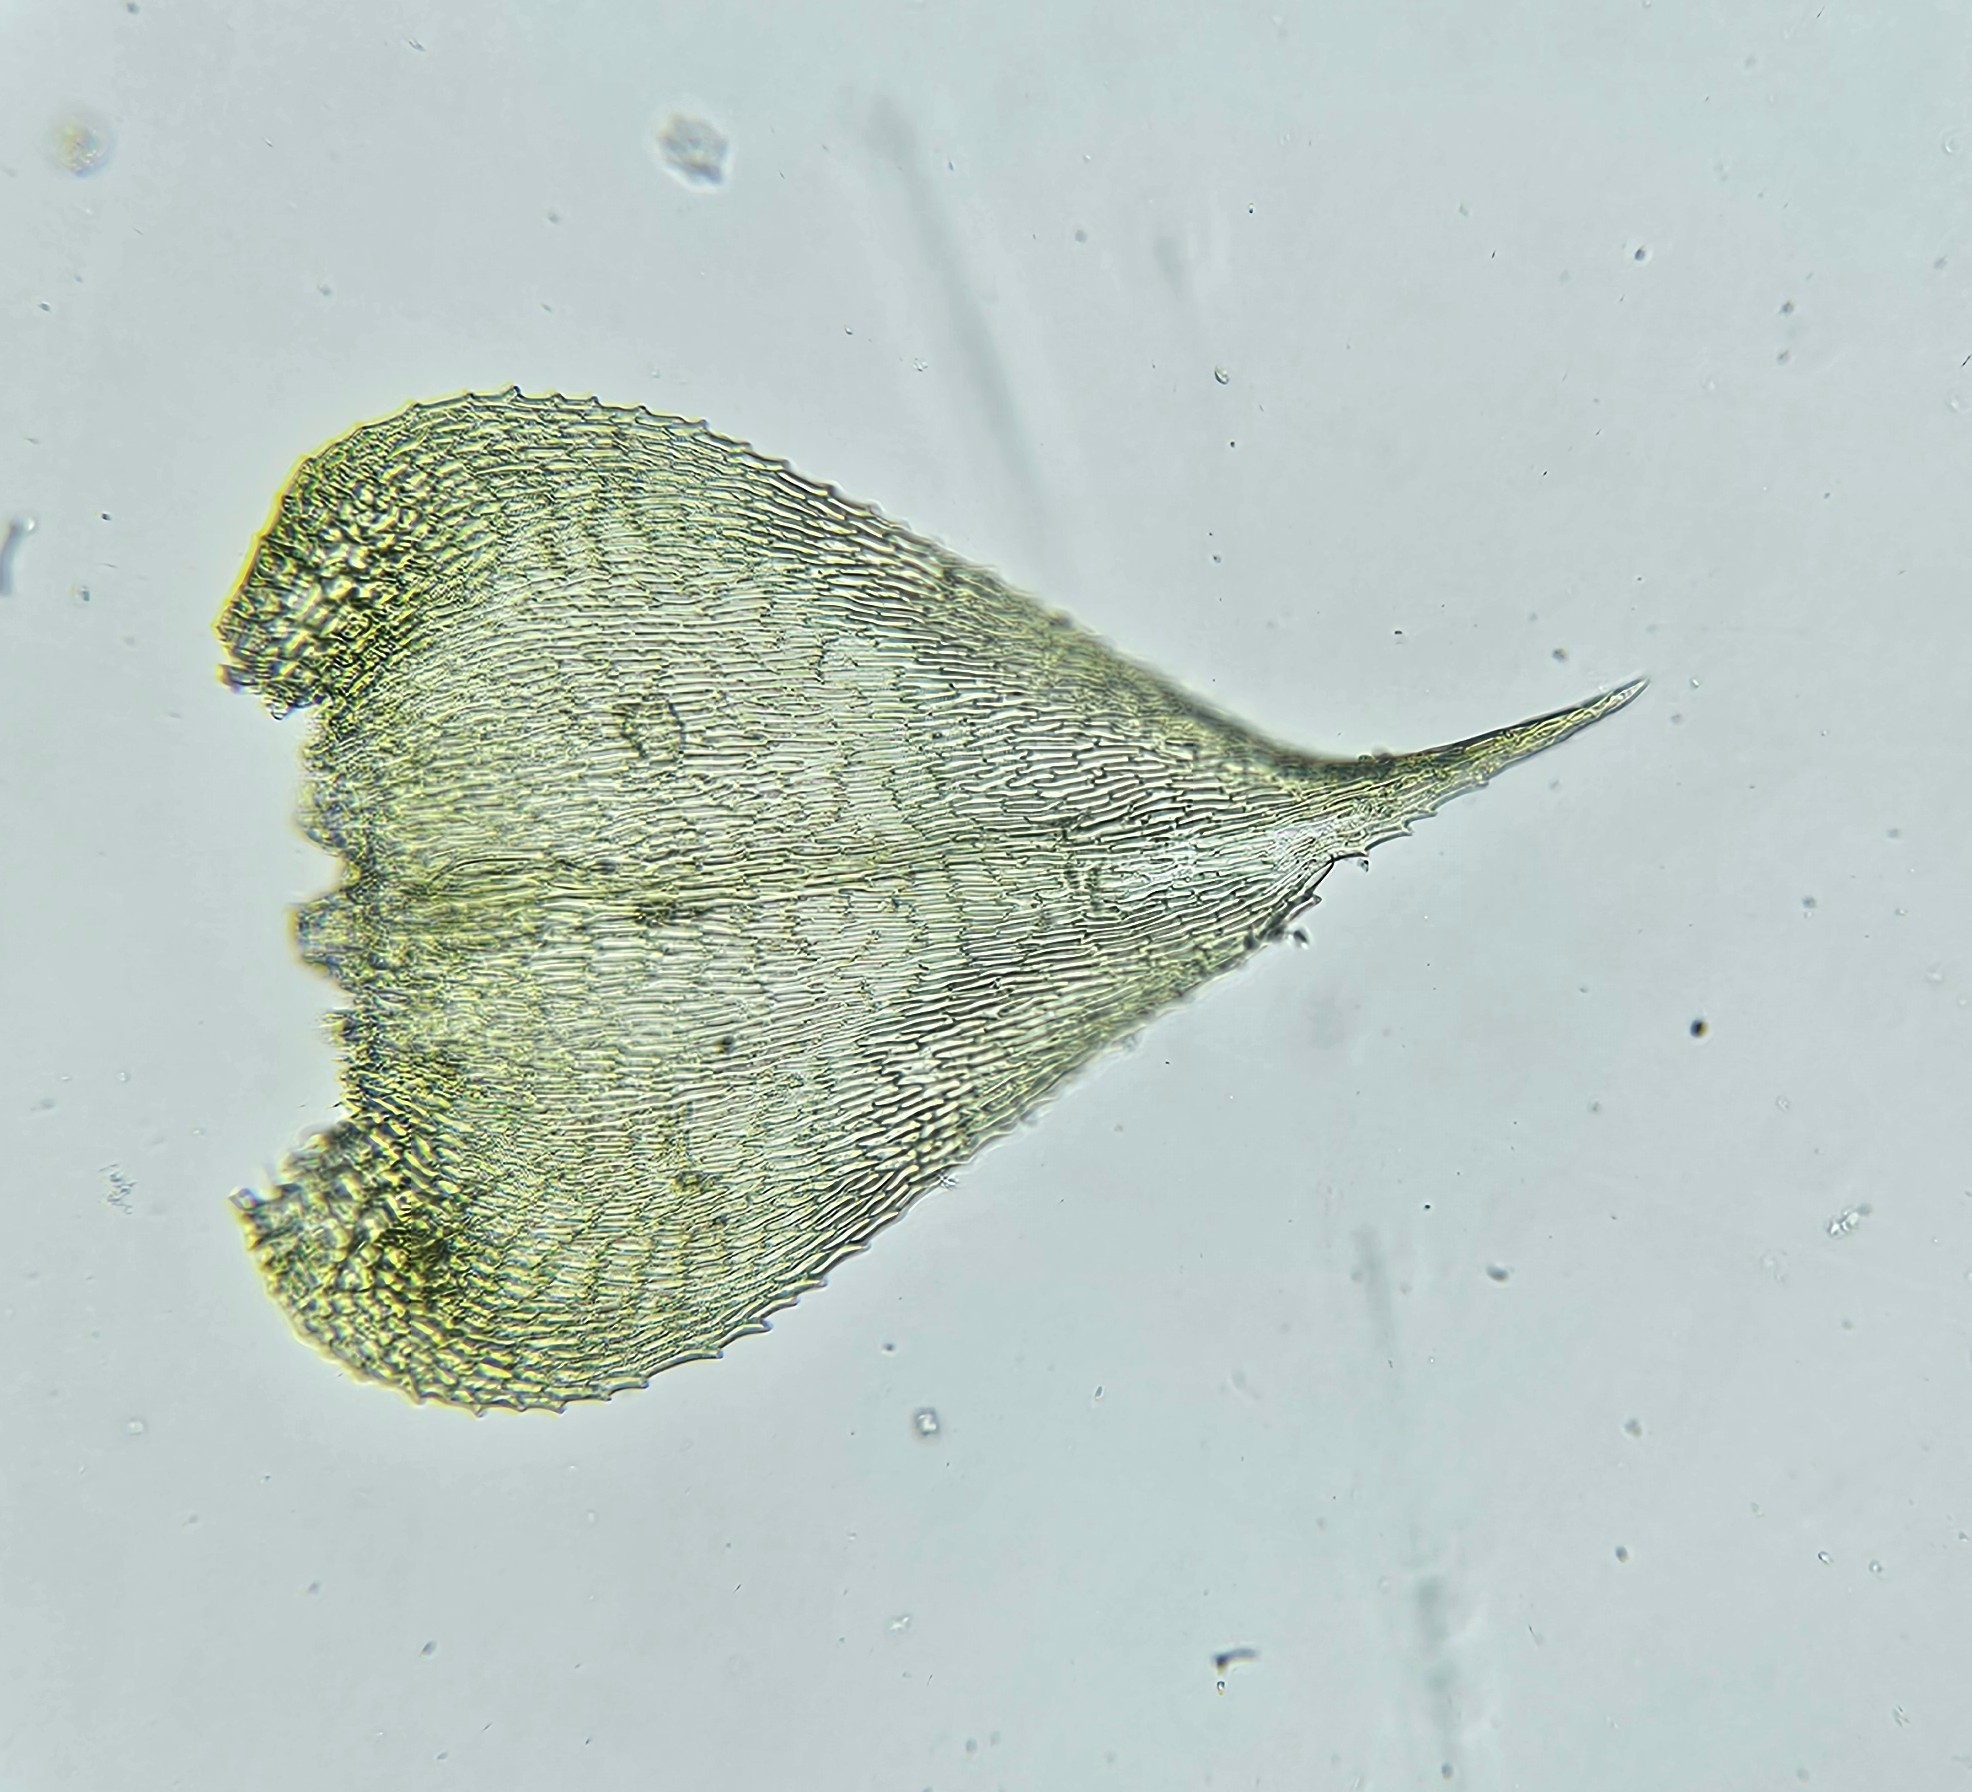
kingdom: Plantae
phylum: Bryophyta
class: Bryopsida
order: Hypnales
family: Brachytheciaceae
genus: Kindbergia
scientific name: Kindbergia praelonga
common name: Slender beaked moss
